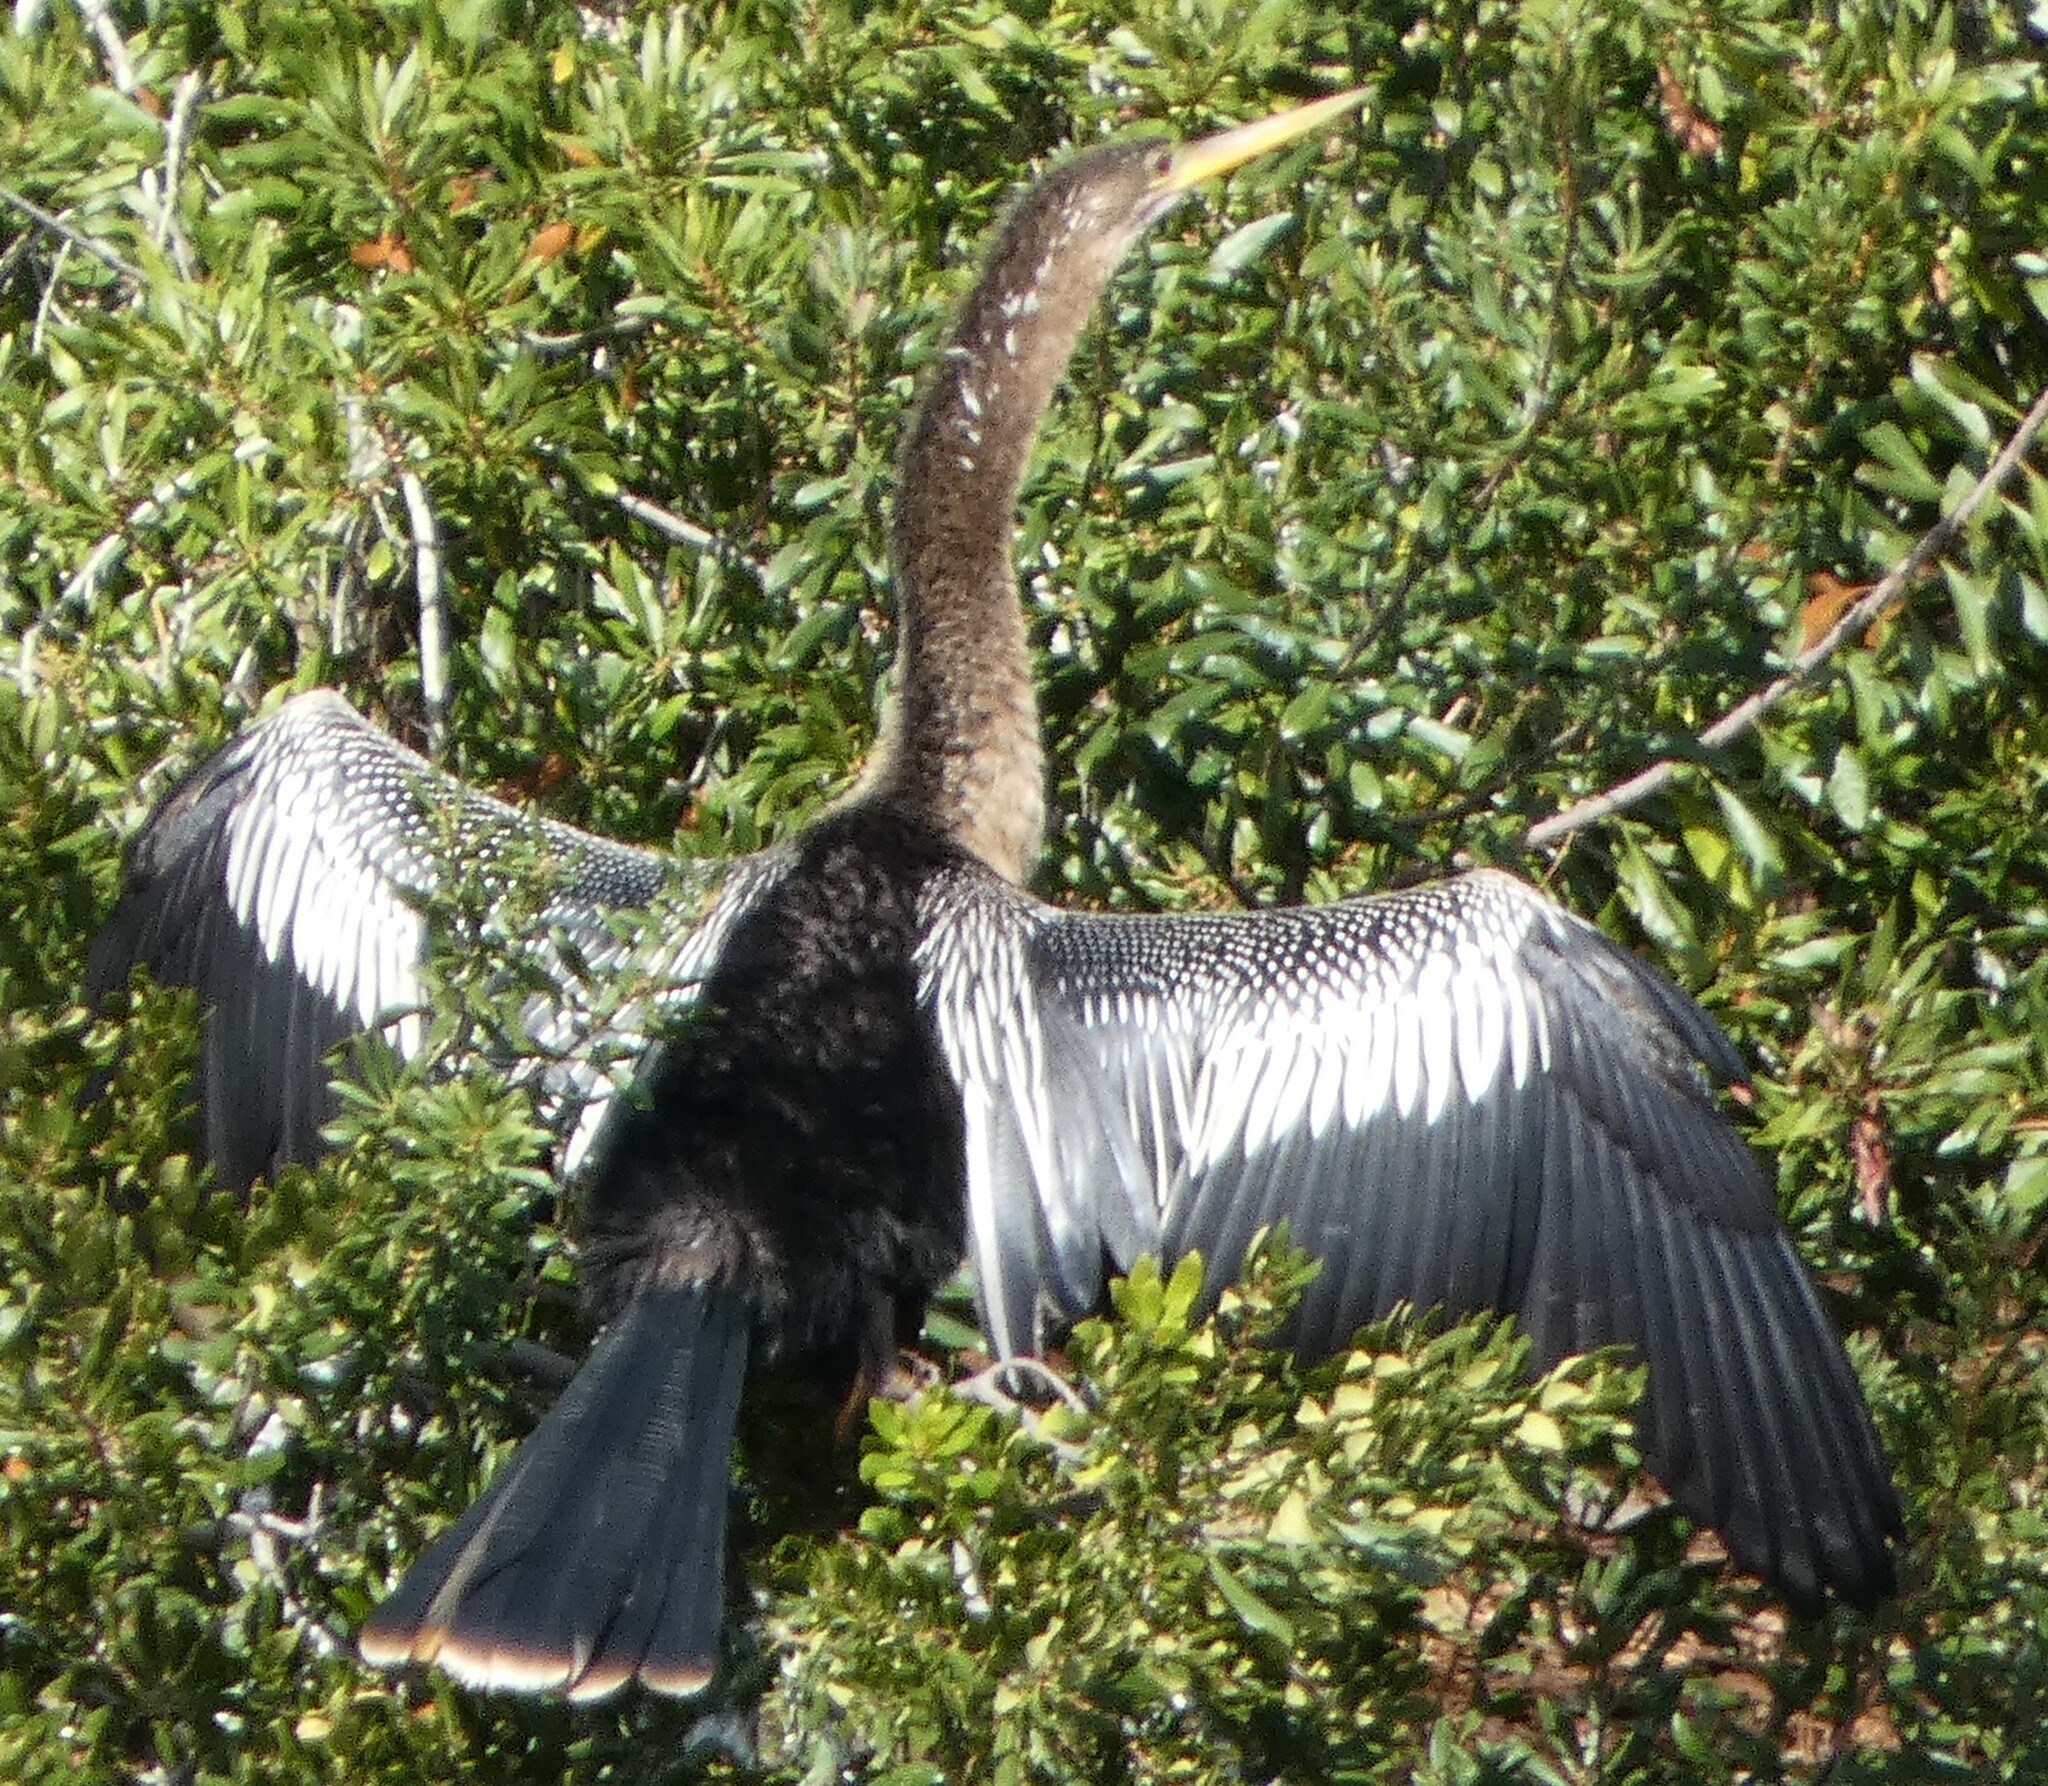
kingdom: Animalia
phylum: Chordata
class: Aves
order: Suliformes
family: Anhingidae
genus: Anhinga
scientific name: Anhinga anhinga
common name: Anhinga
